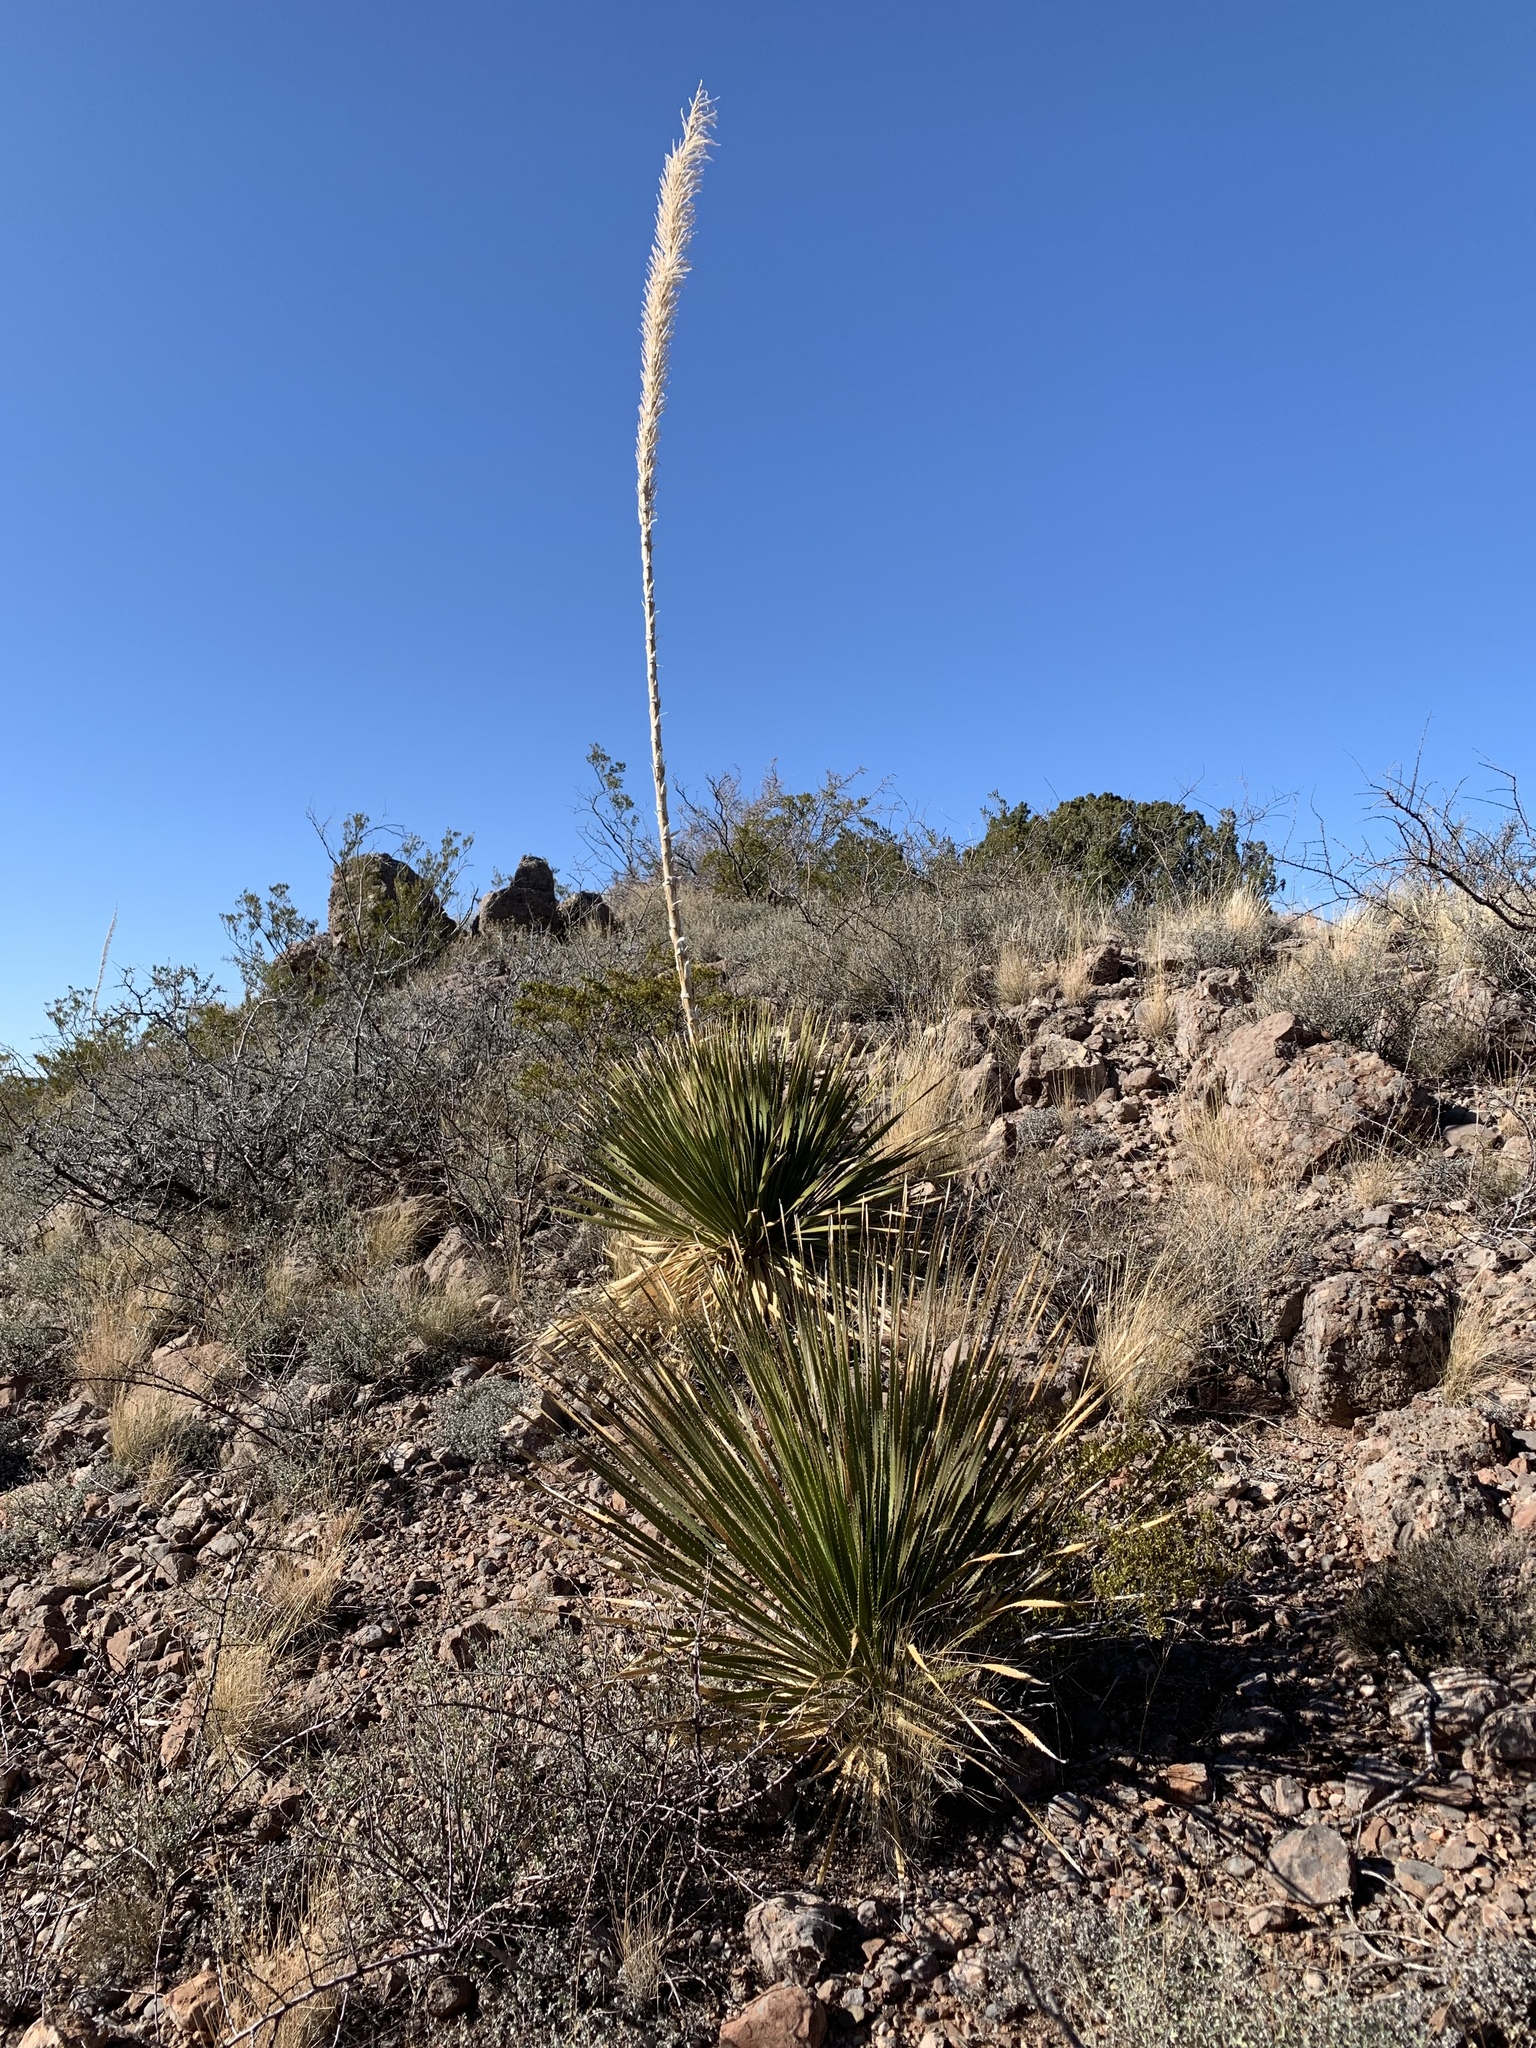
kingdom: Plantae
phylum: Tracheophyta
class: Liliopsida
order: Asparagales
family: Asparagaceae
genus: Dasylirion
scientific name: Dasylirion wheeleri
